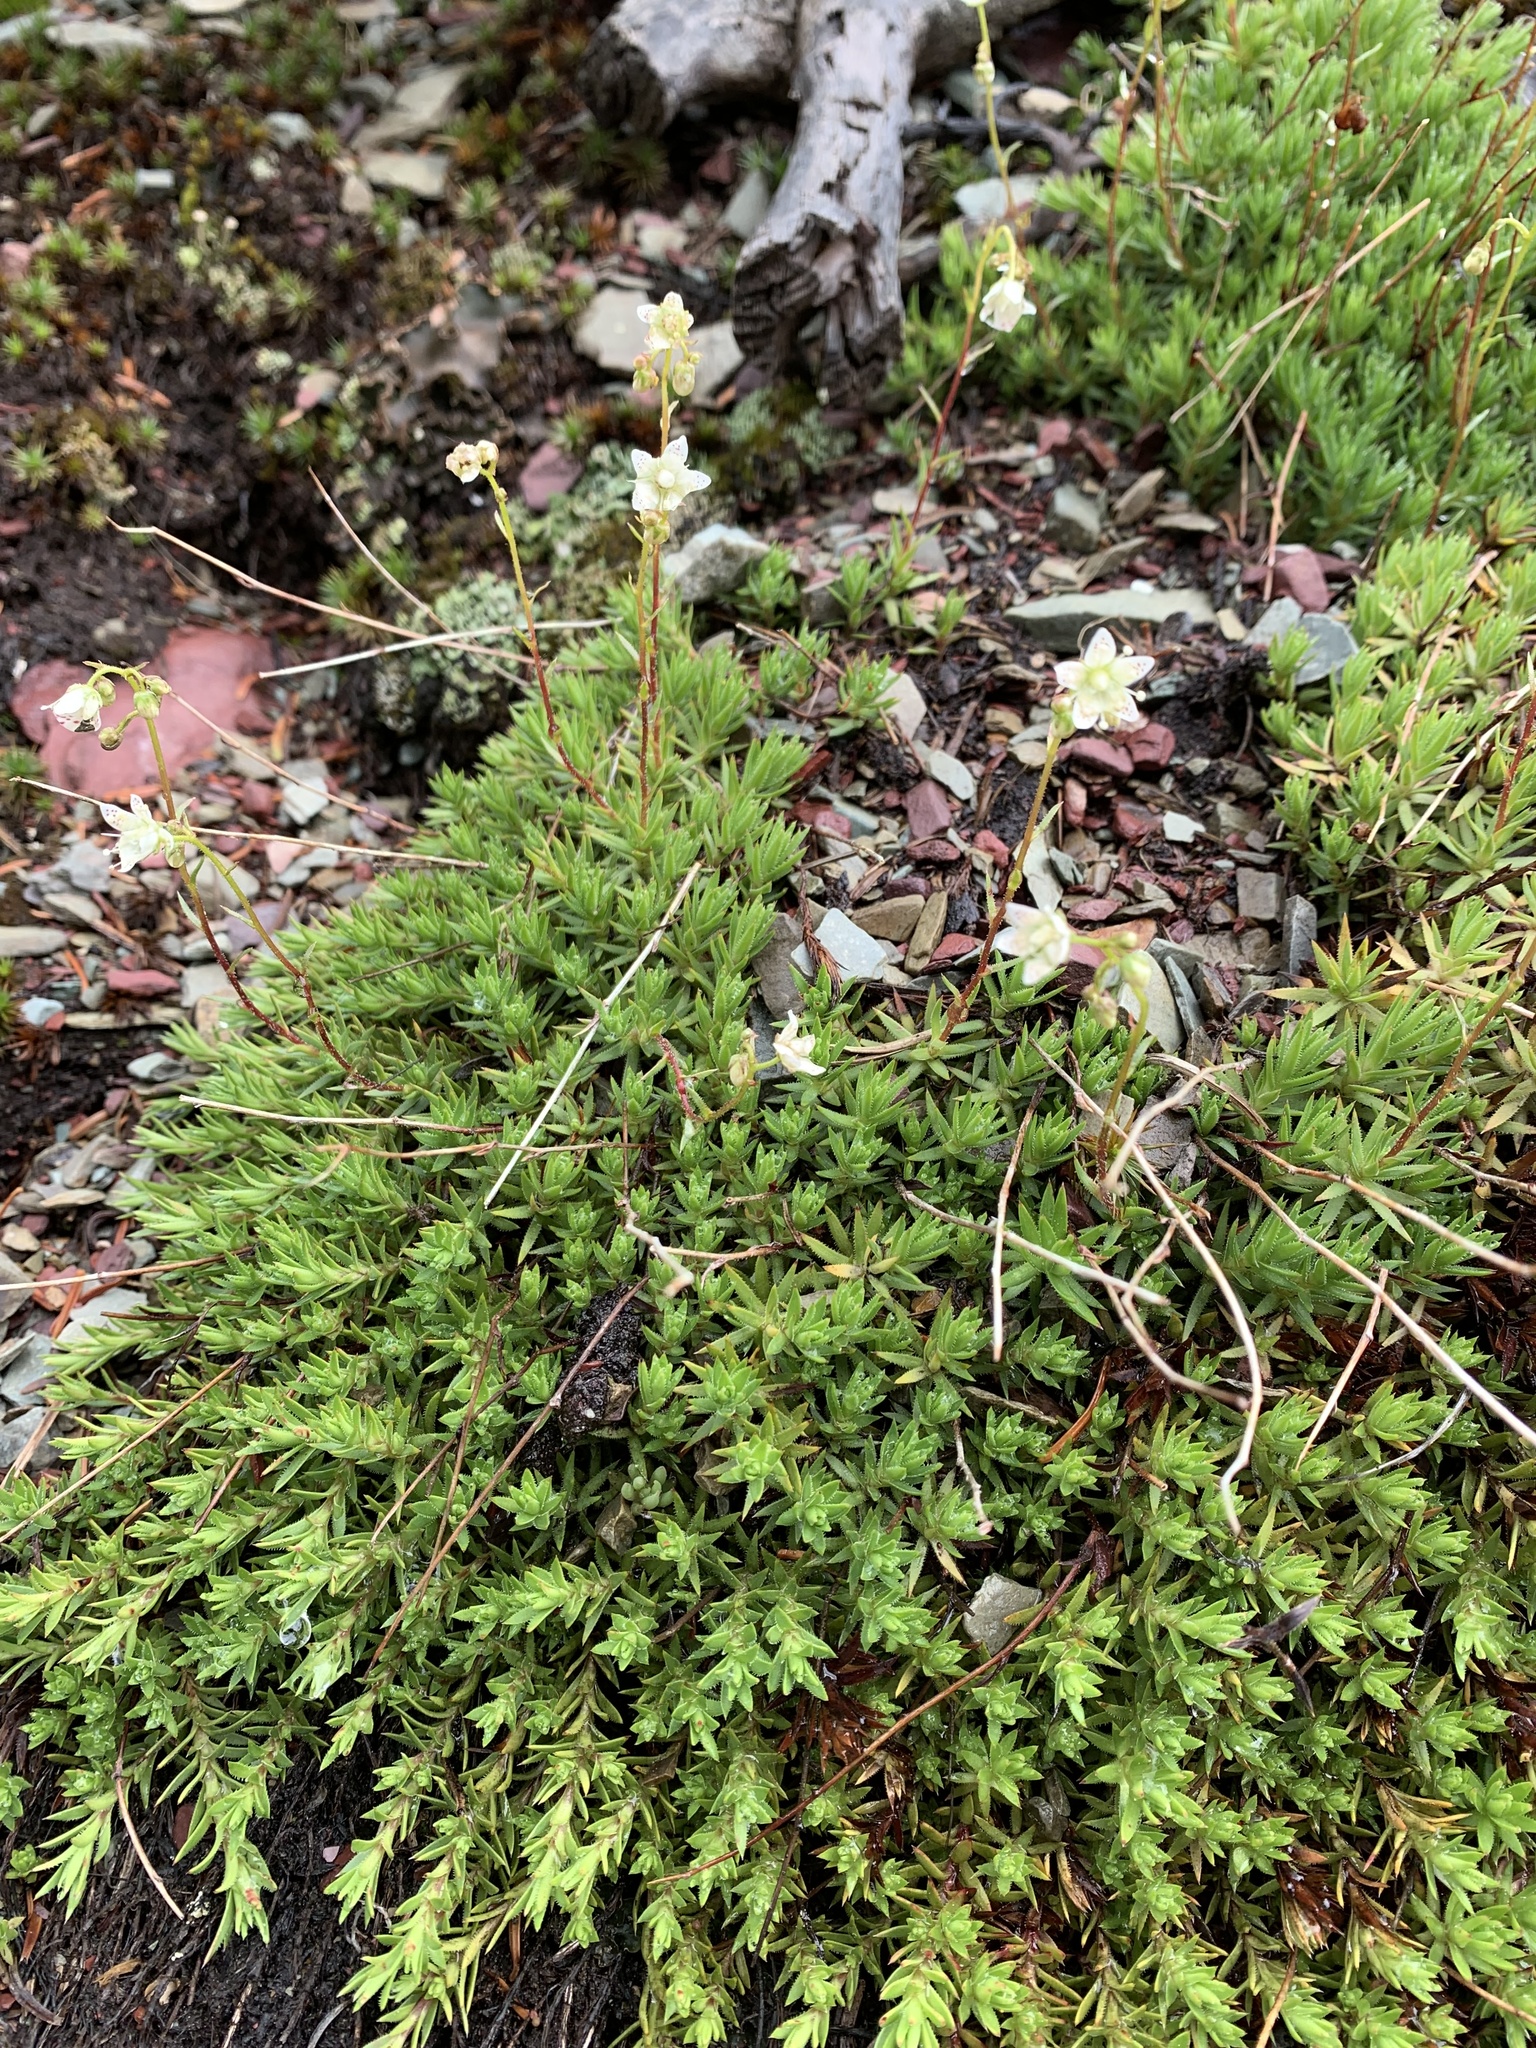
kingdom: Plantae
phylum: Tracheophyta
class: Magnoliopsida
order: Saxifragales
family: Saxifragaceae
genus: Saxifraga
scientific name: Saxifraga bronchialis
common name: Matted saxifrage
